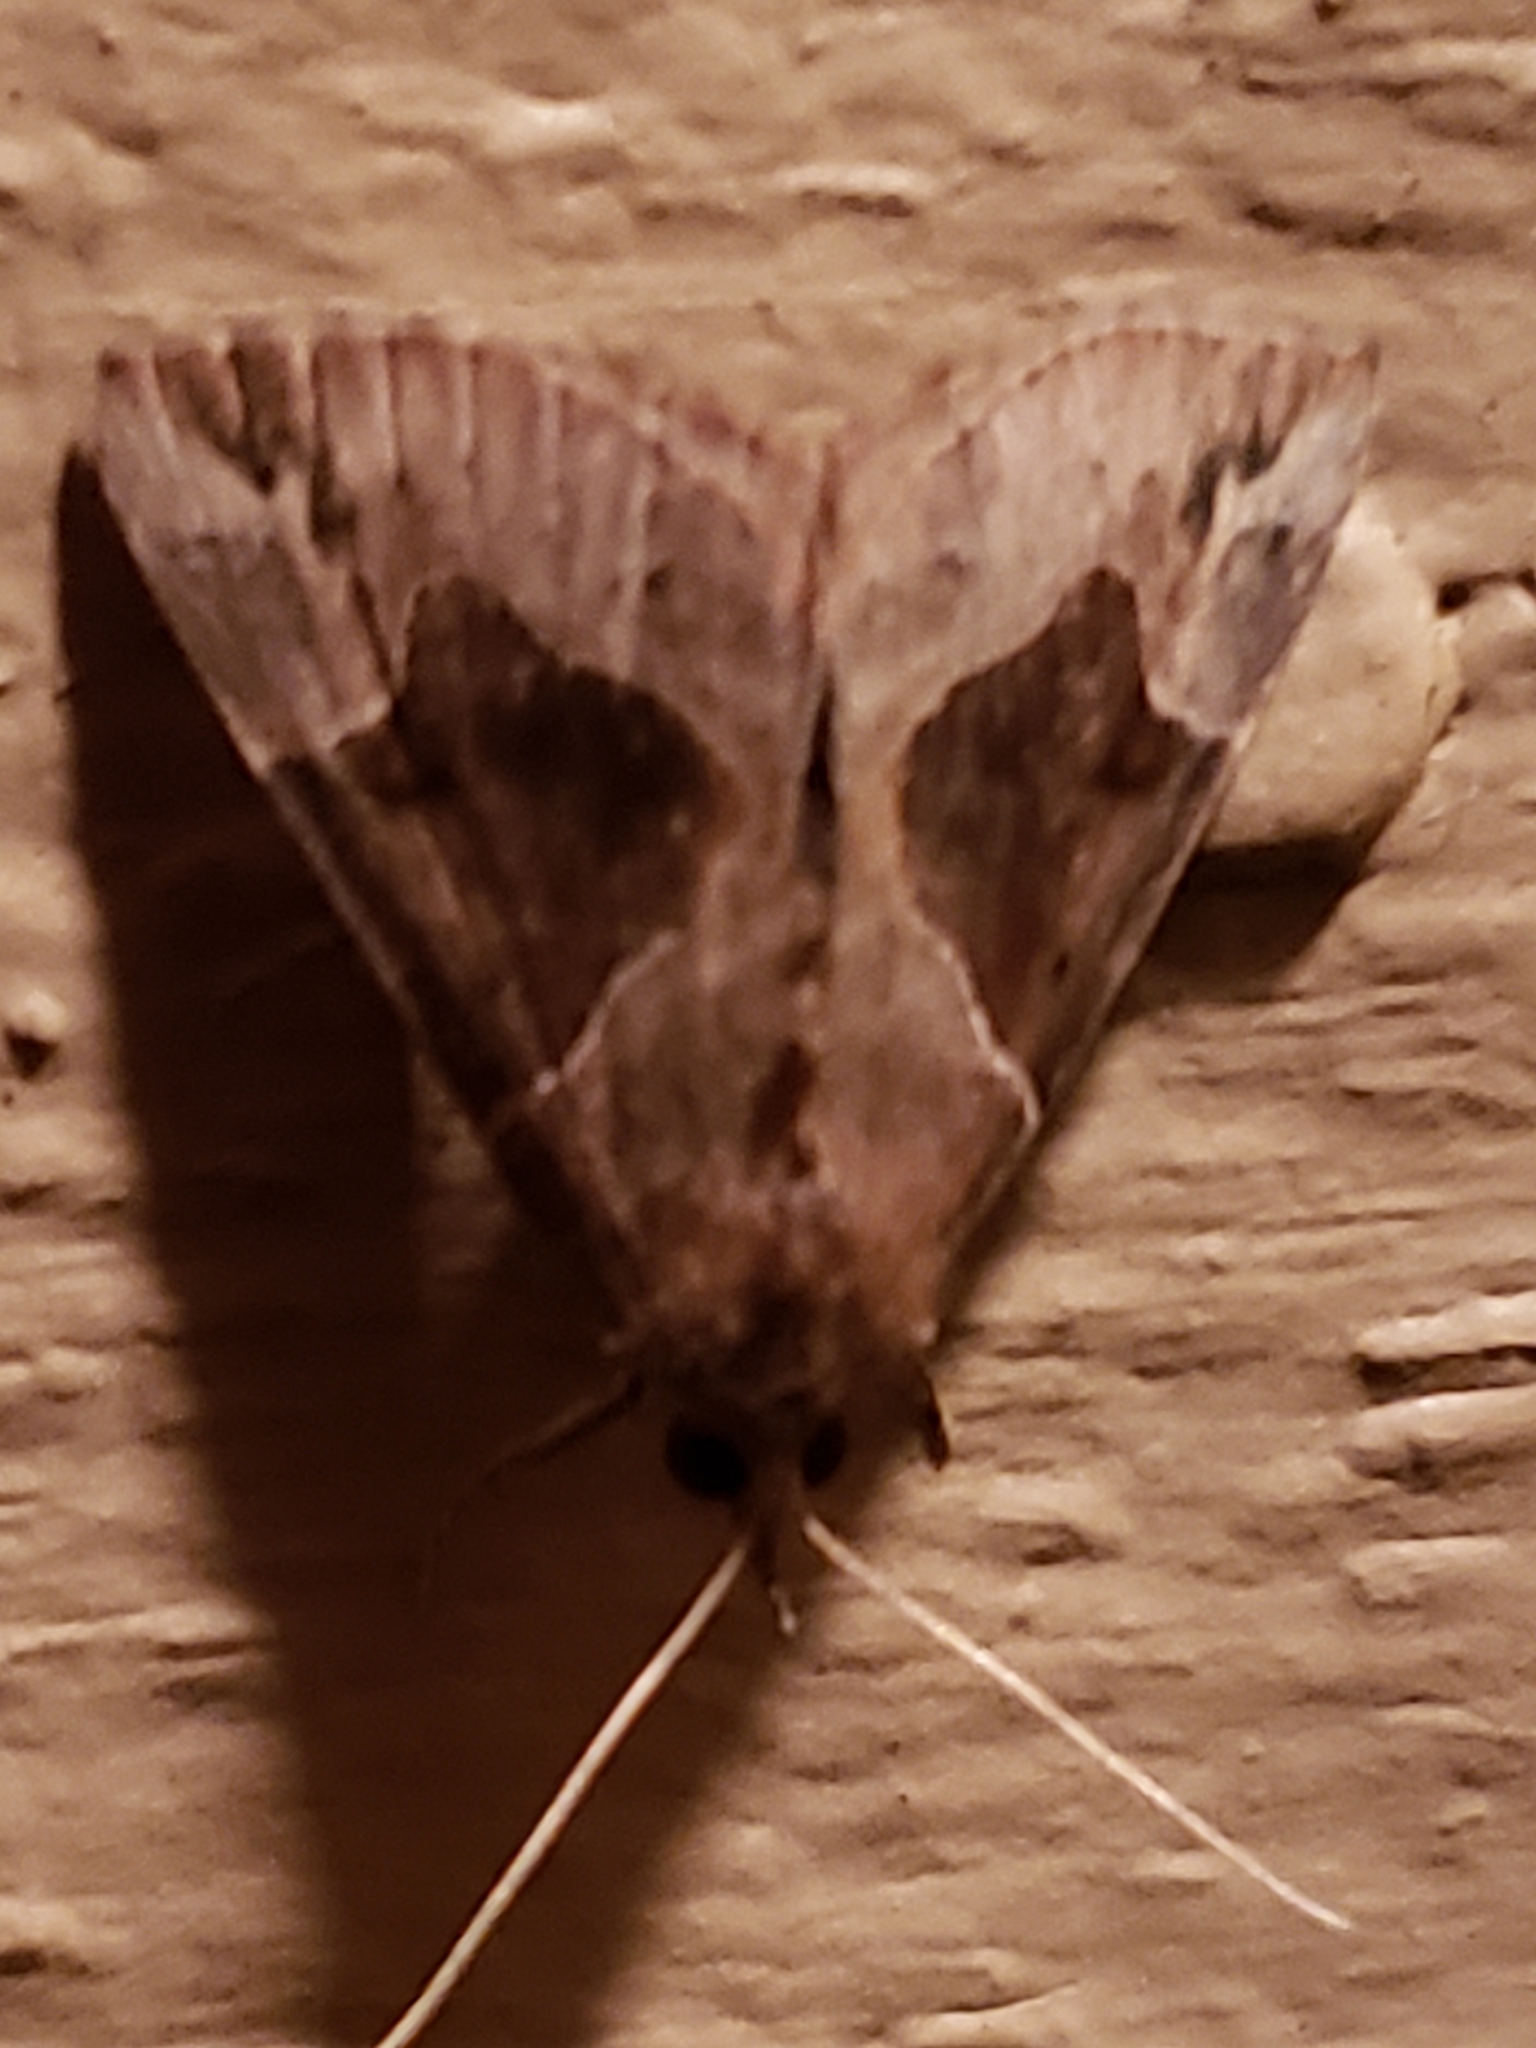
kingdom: Animalia
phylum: Arthropoda
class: Insecta
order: Lepidoptera
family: Erebidae
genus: Hypena
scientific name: Hypena manalis
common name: Flowing-line bomolocha moth
